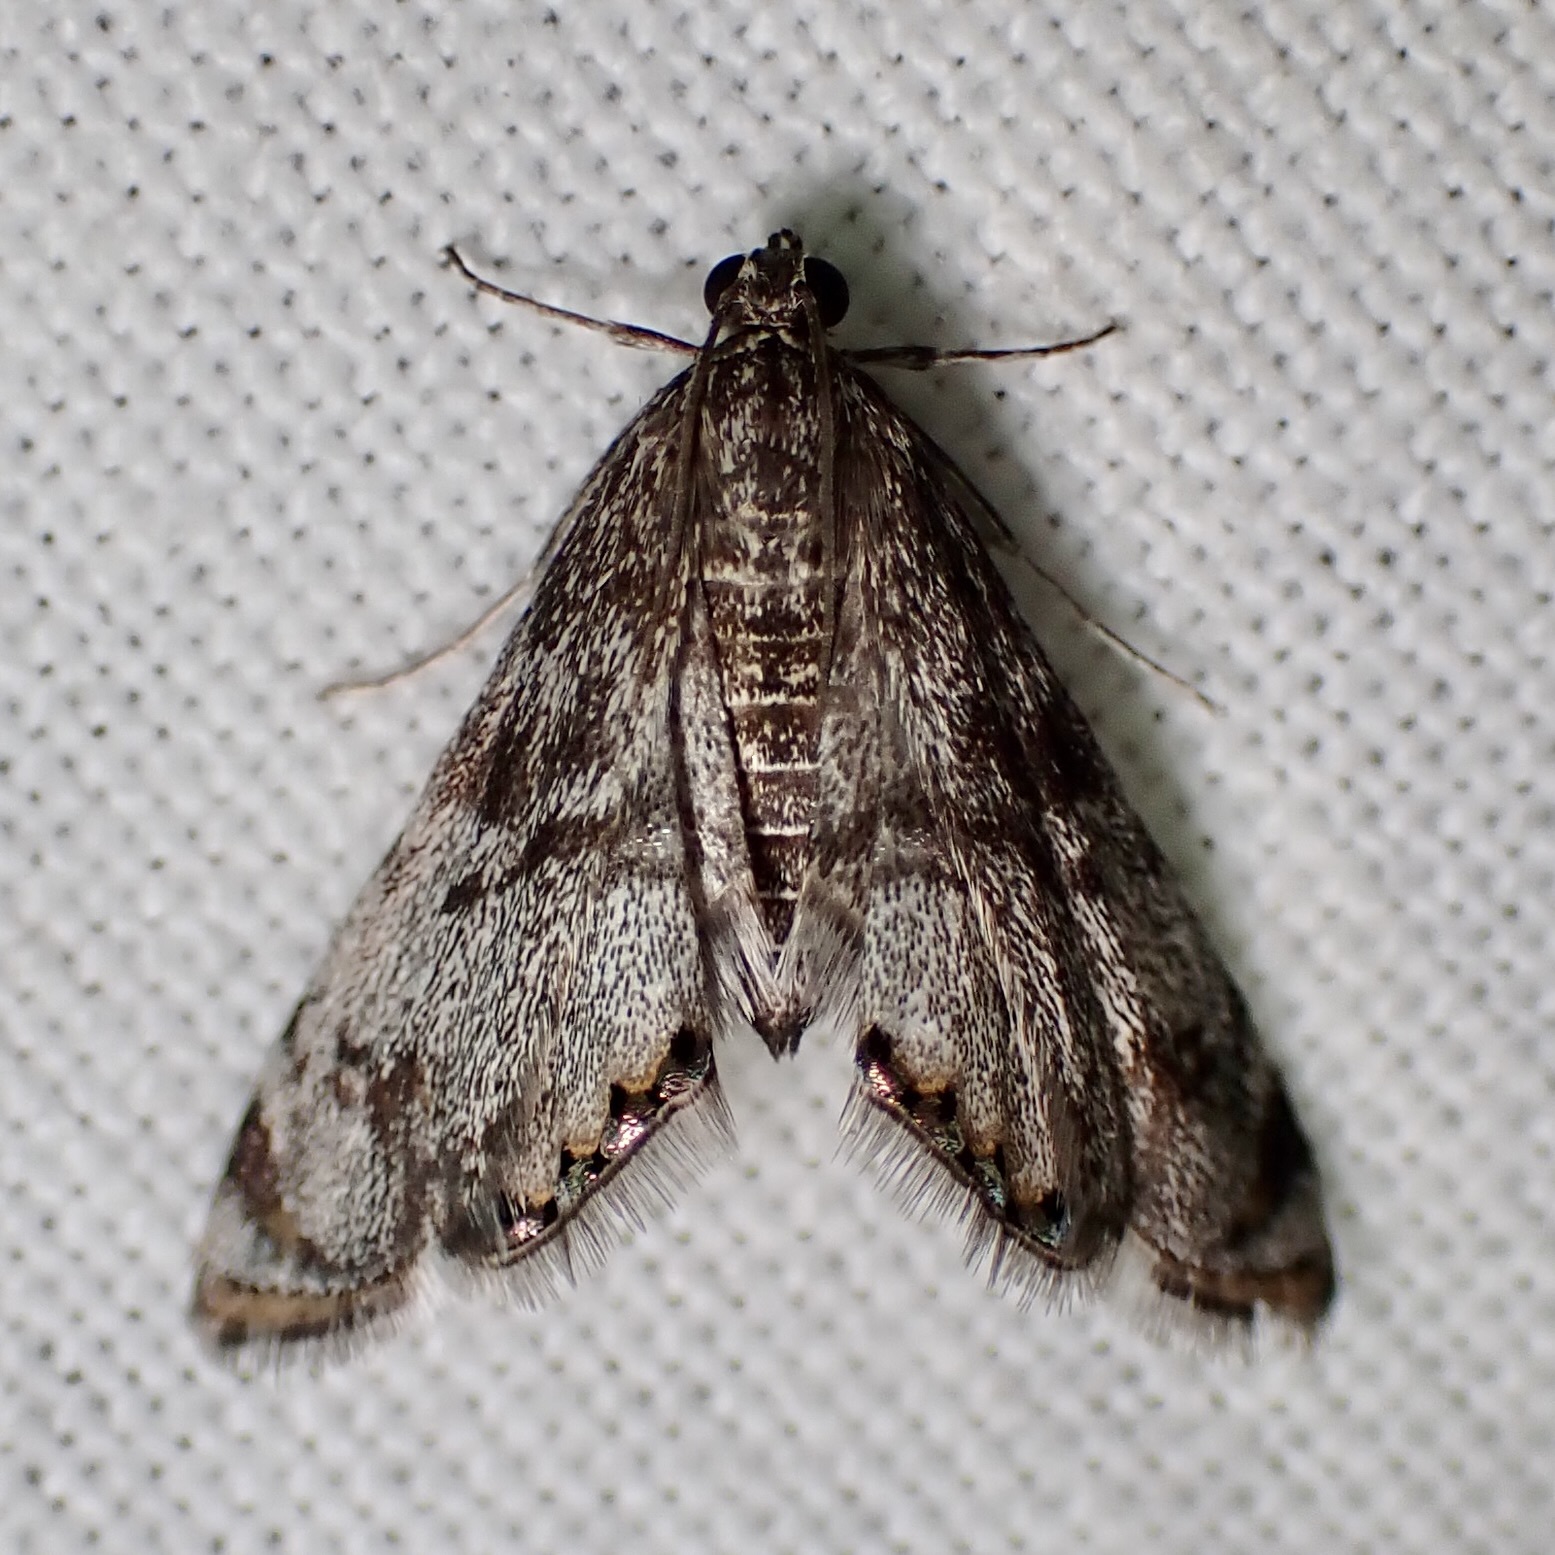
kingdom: Animalia
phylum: Arthropoda
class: Insecta
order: Lepidoptera
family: Crambidae
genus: Petrophila
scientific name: Petrophila schaefferalis
